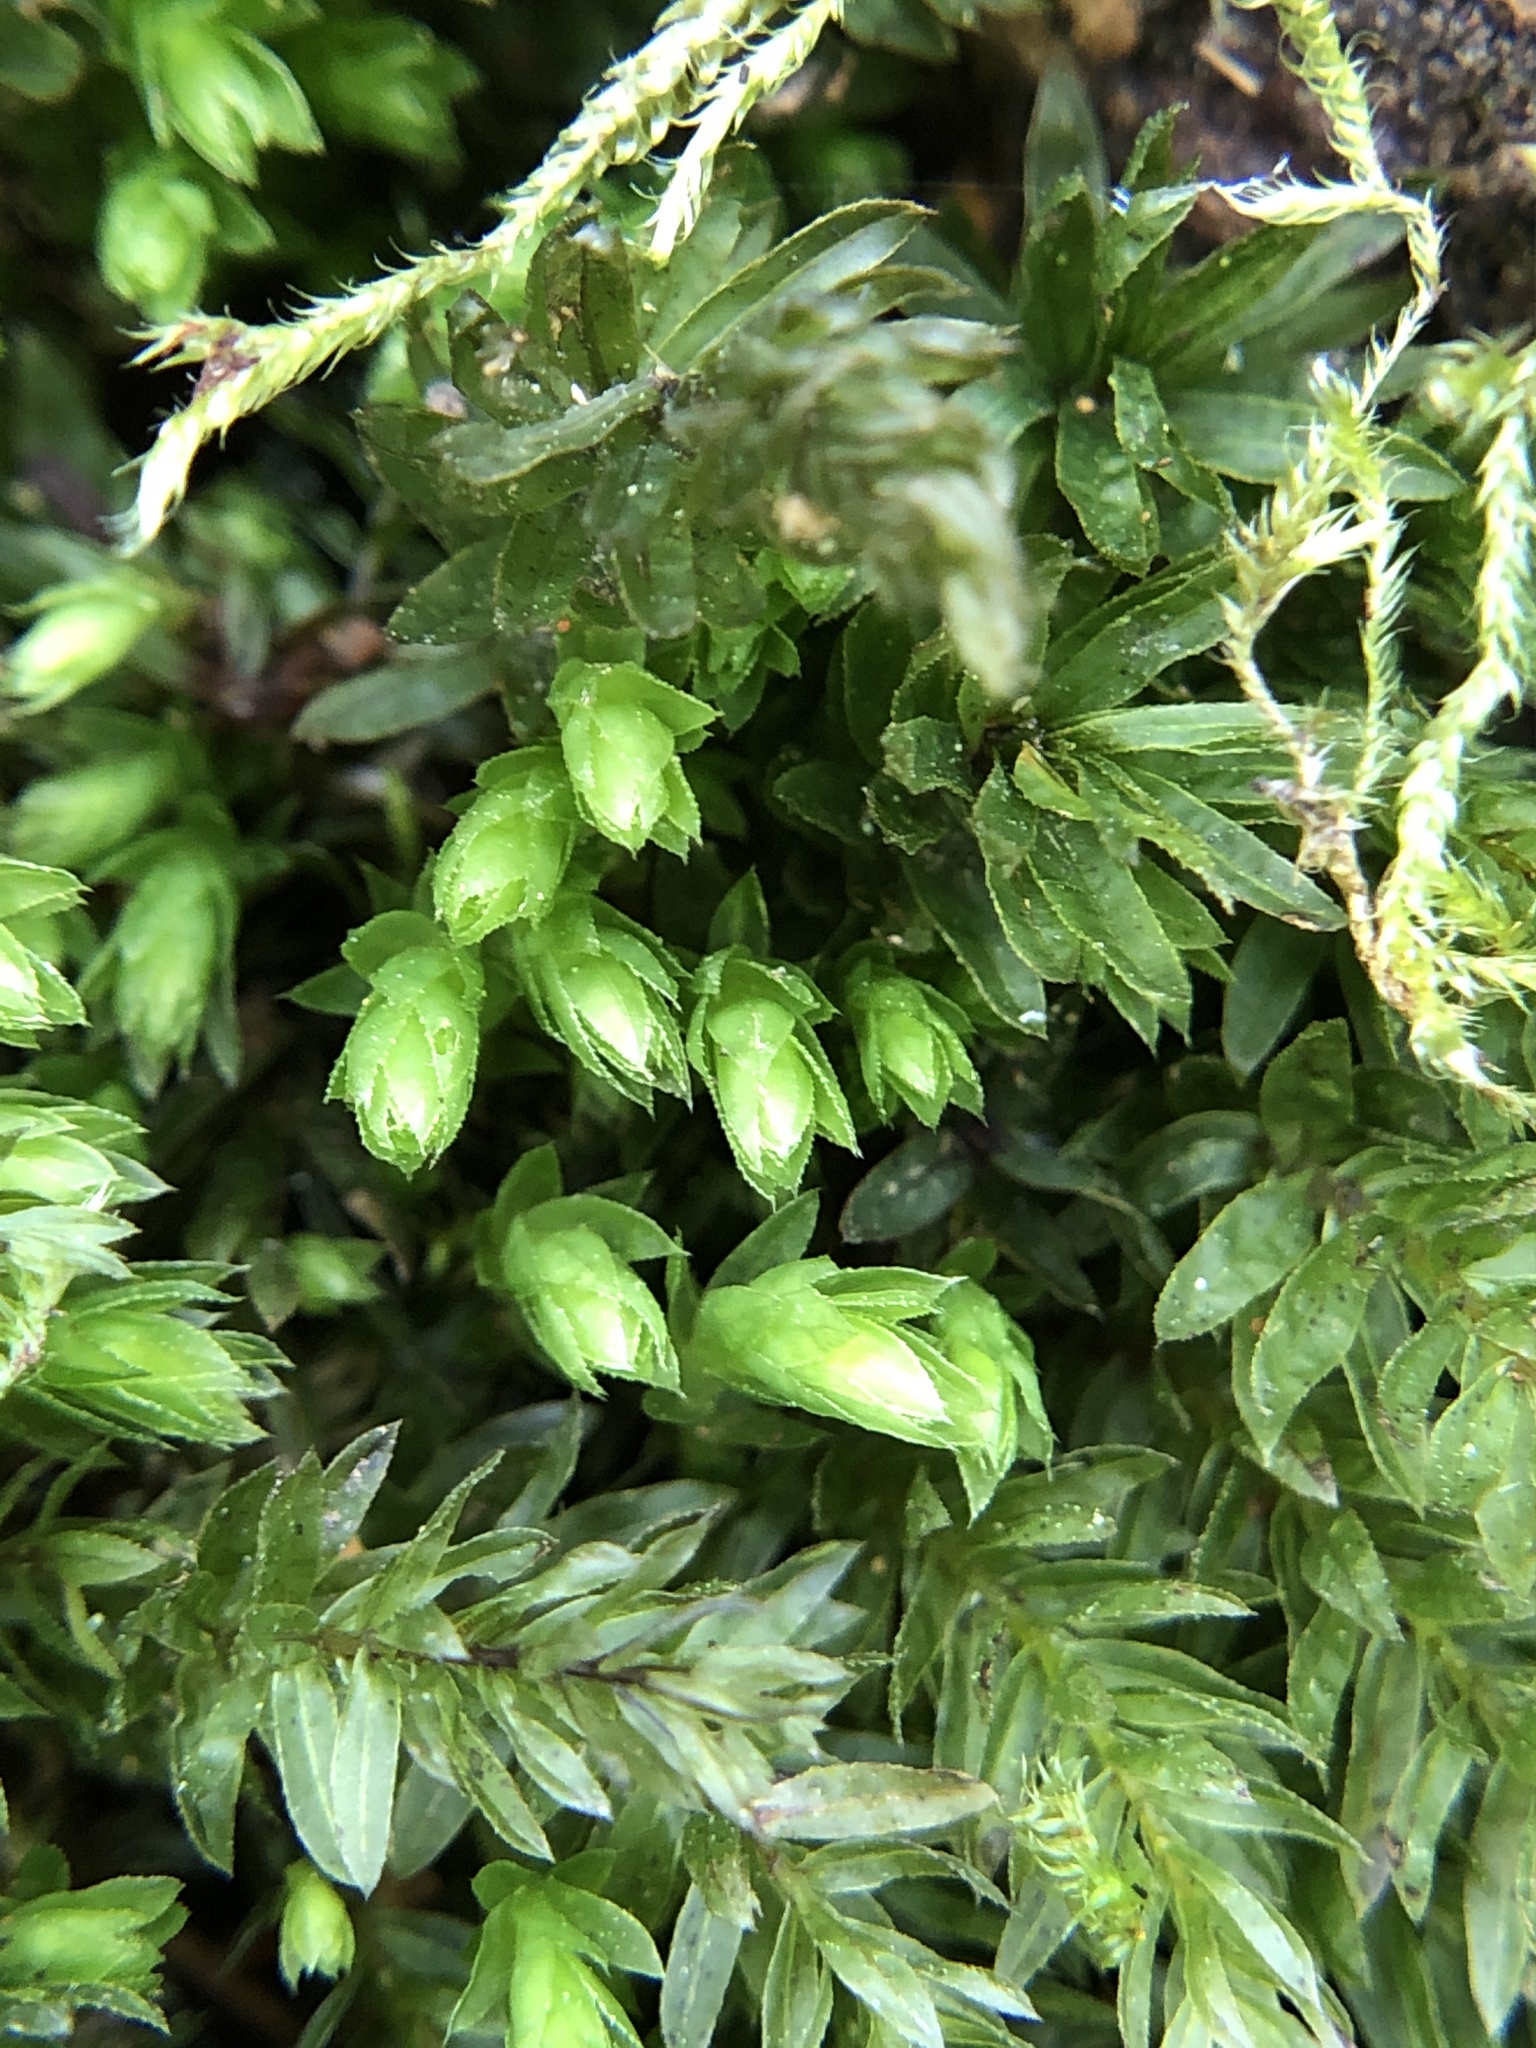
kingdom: Plantae
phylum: Bryophyta
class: Bryopsida
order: Bryales
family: Mniaceae
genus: Mnium
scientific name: Mnium hornum
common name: Swan's-neck leafy moss
